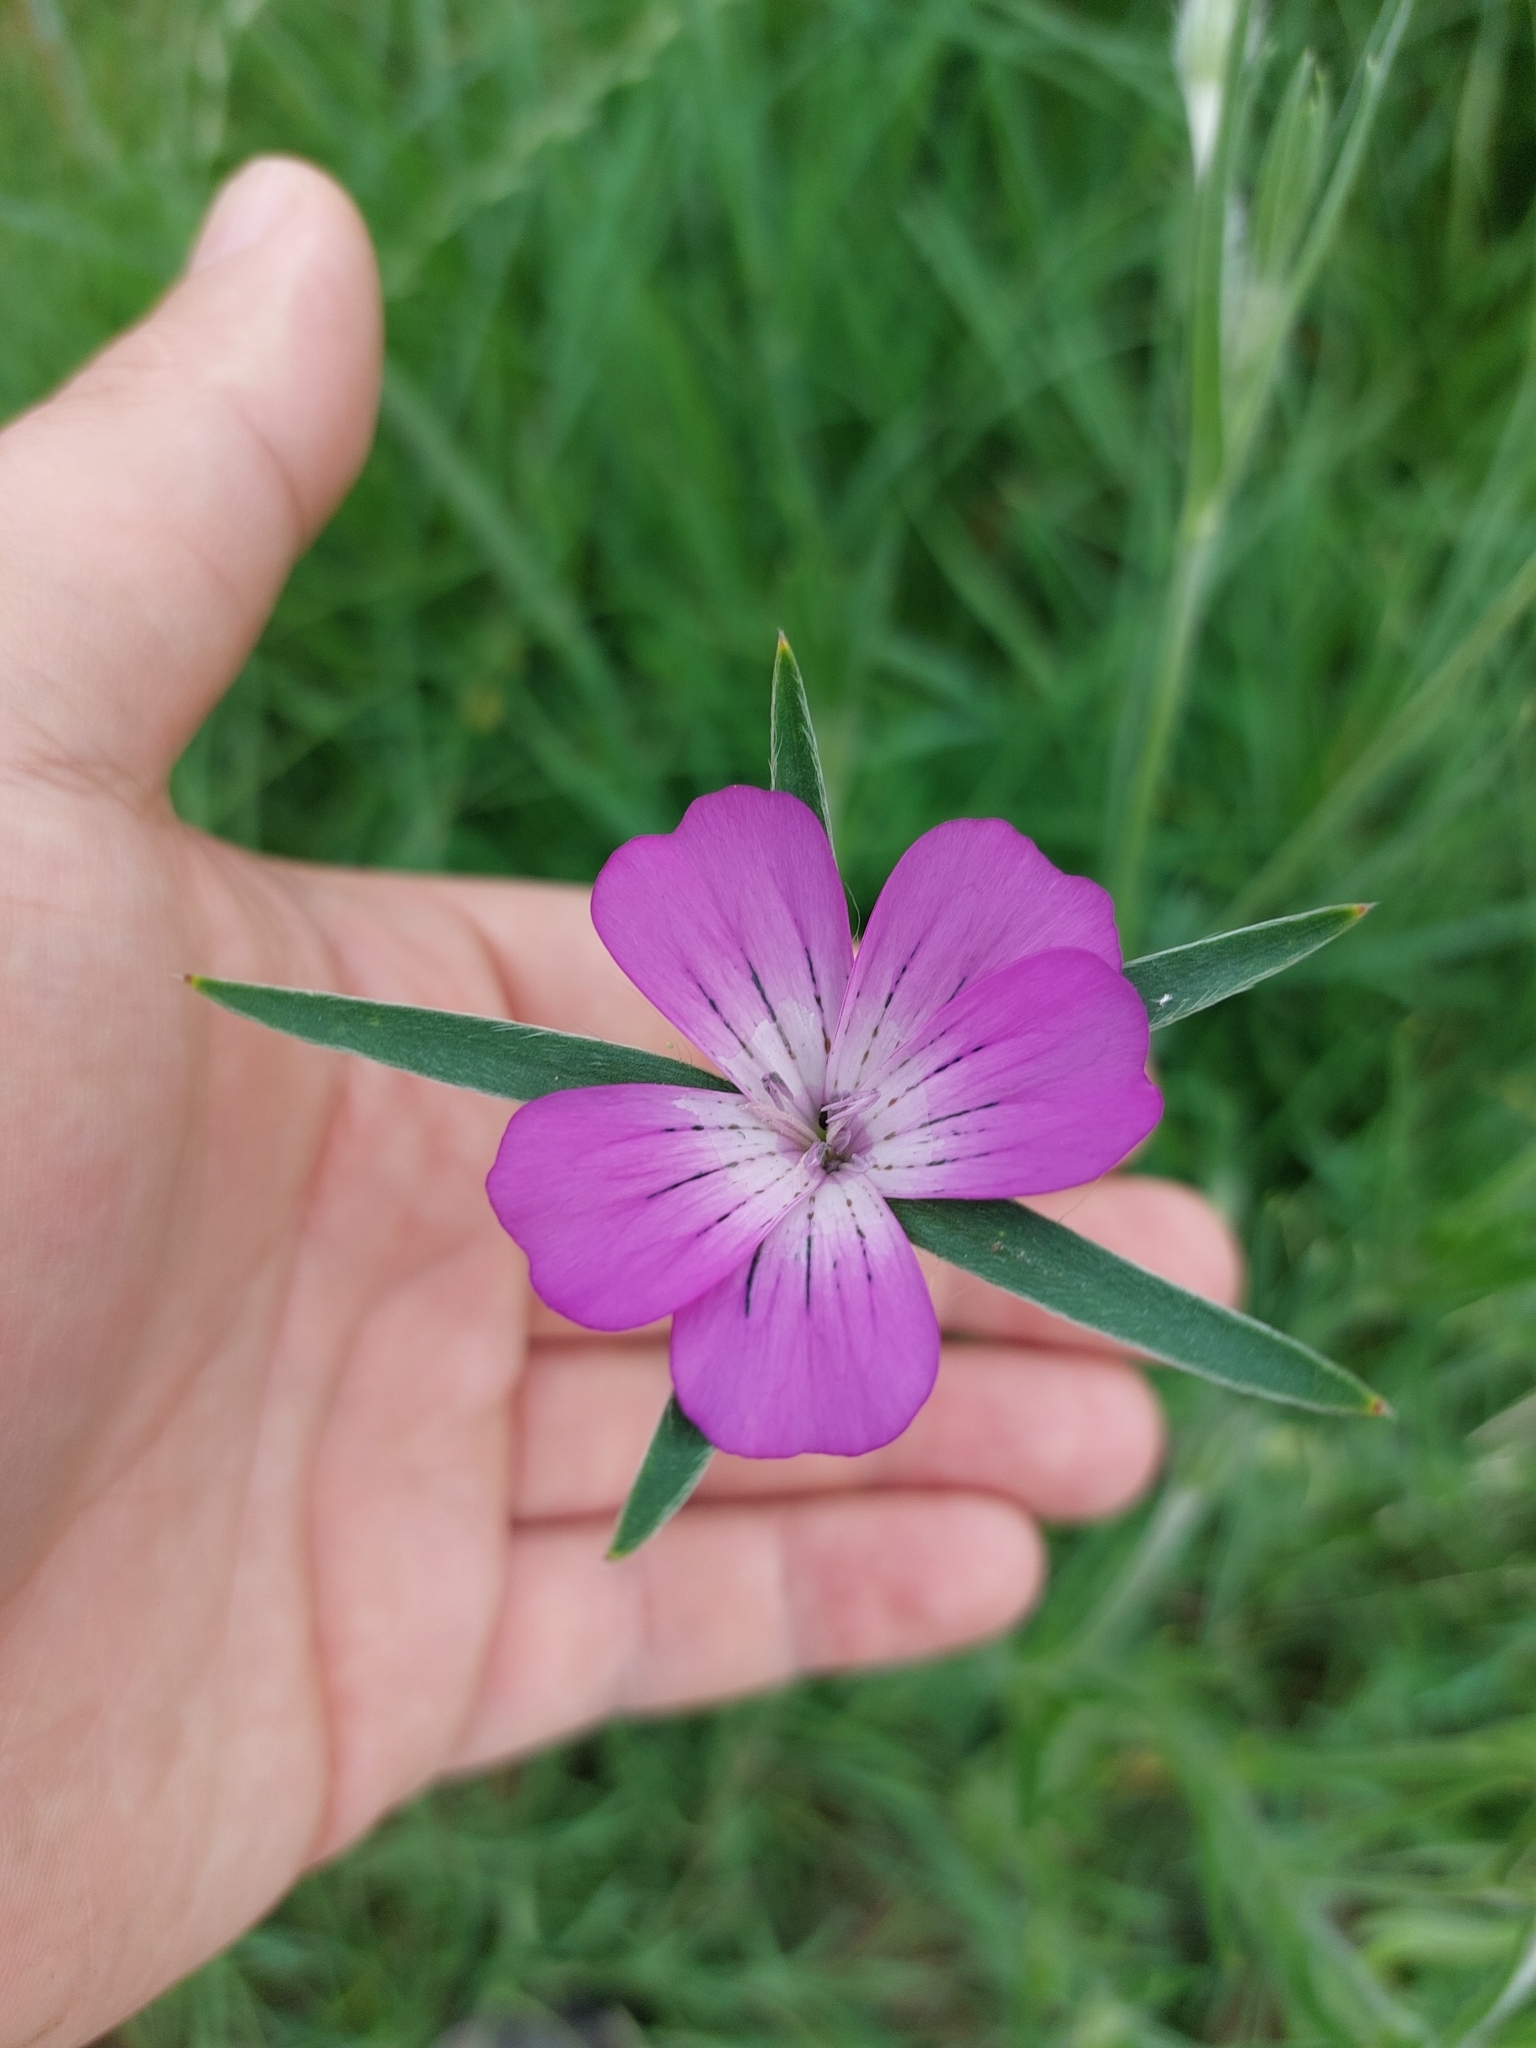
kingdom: Plantae
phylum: Tracheophyta
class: Magnoliopsida
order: Caryophyllales
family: Caryophyllaceae
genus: Agrostemma
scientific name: Agrostemma githago
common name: Common corncockle
